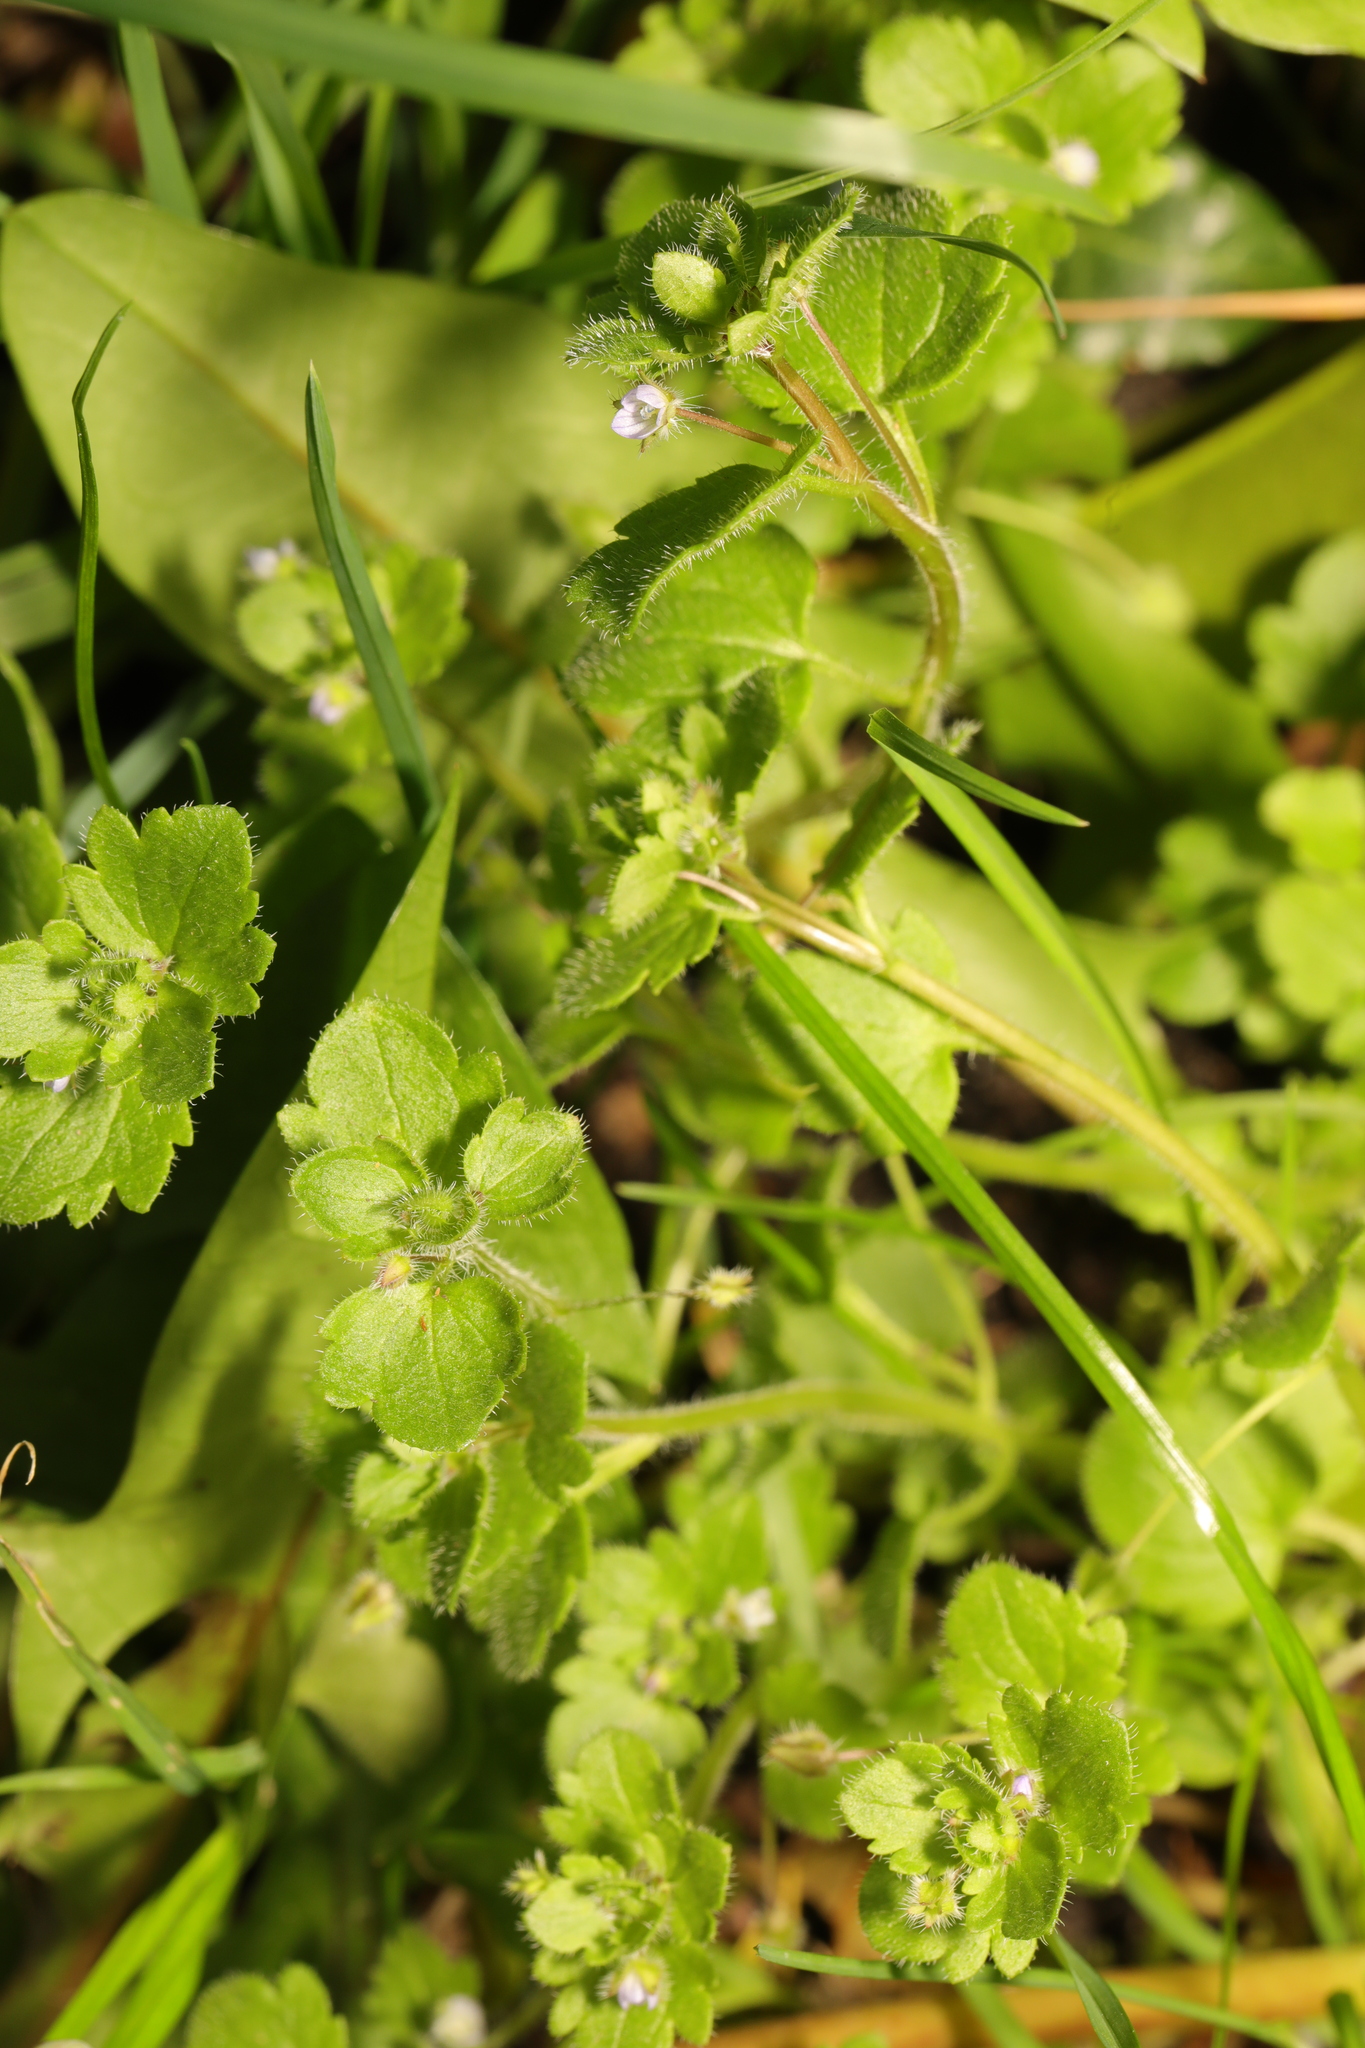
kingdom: Plantae
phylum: Tracheophyta
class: Magnoliopsida
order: Lamiales
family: Plantaginaceae
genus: Veronica
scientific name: Veronica sublobata
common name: False ivy-leaved speedwell
